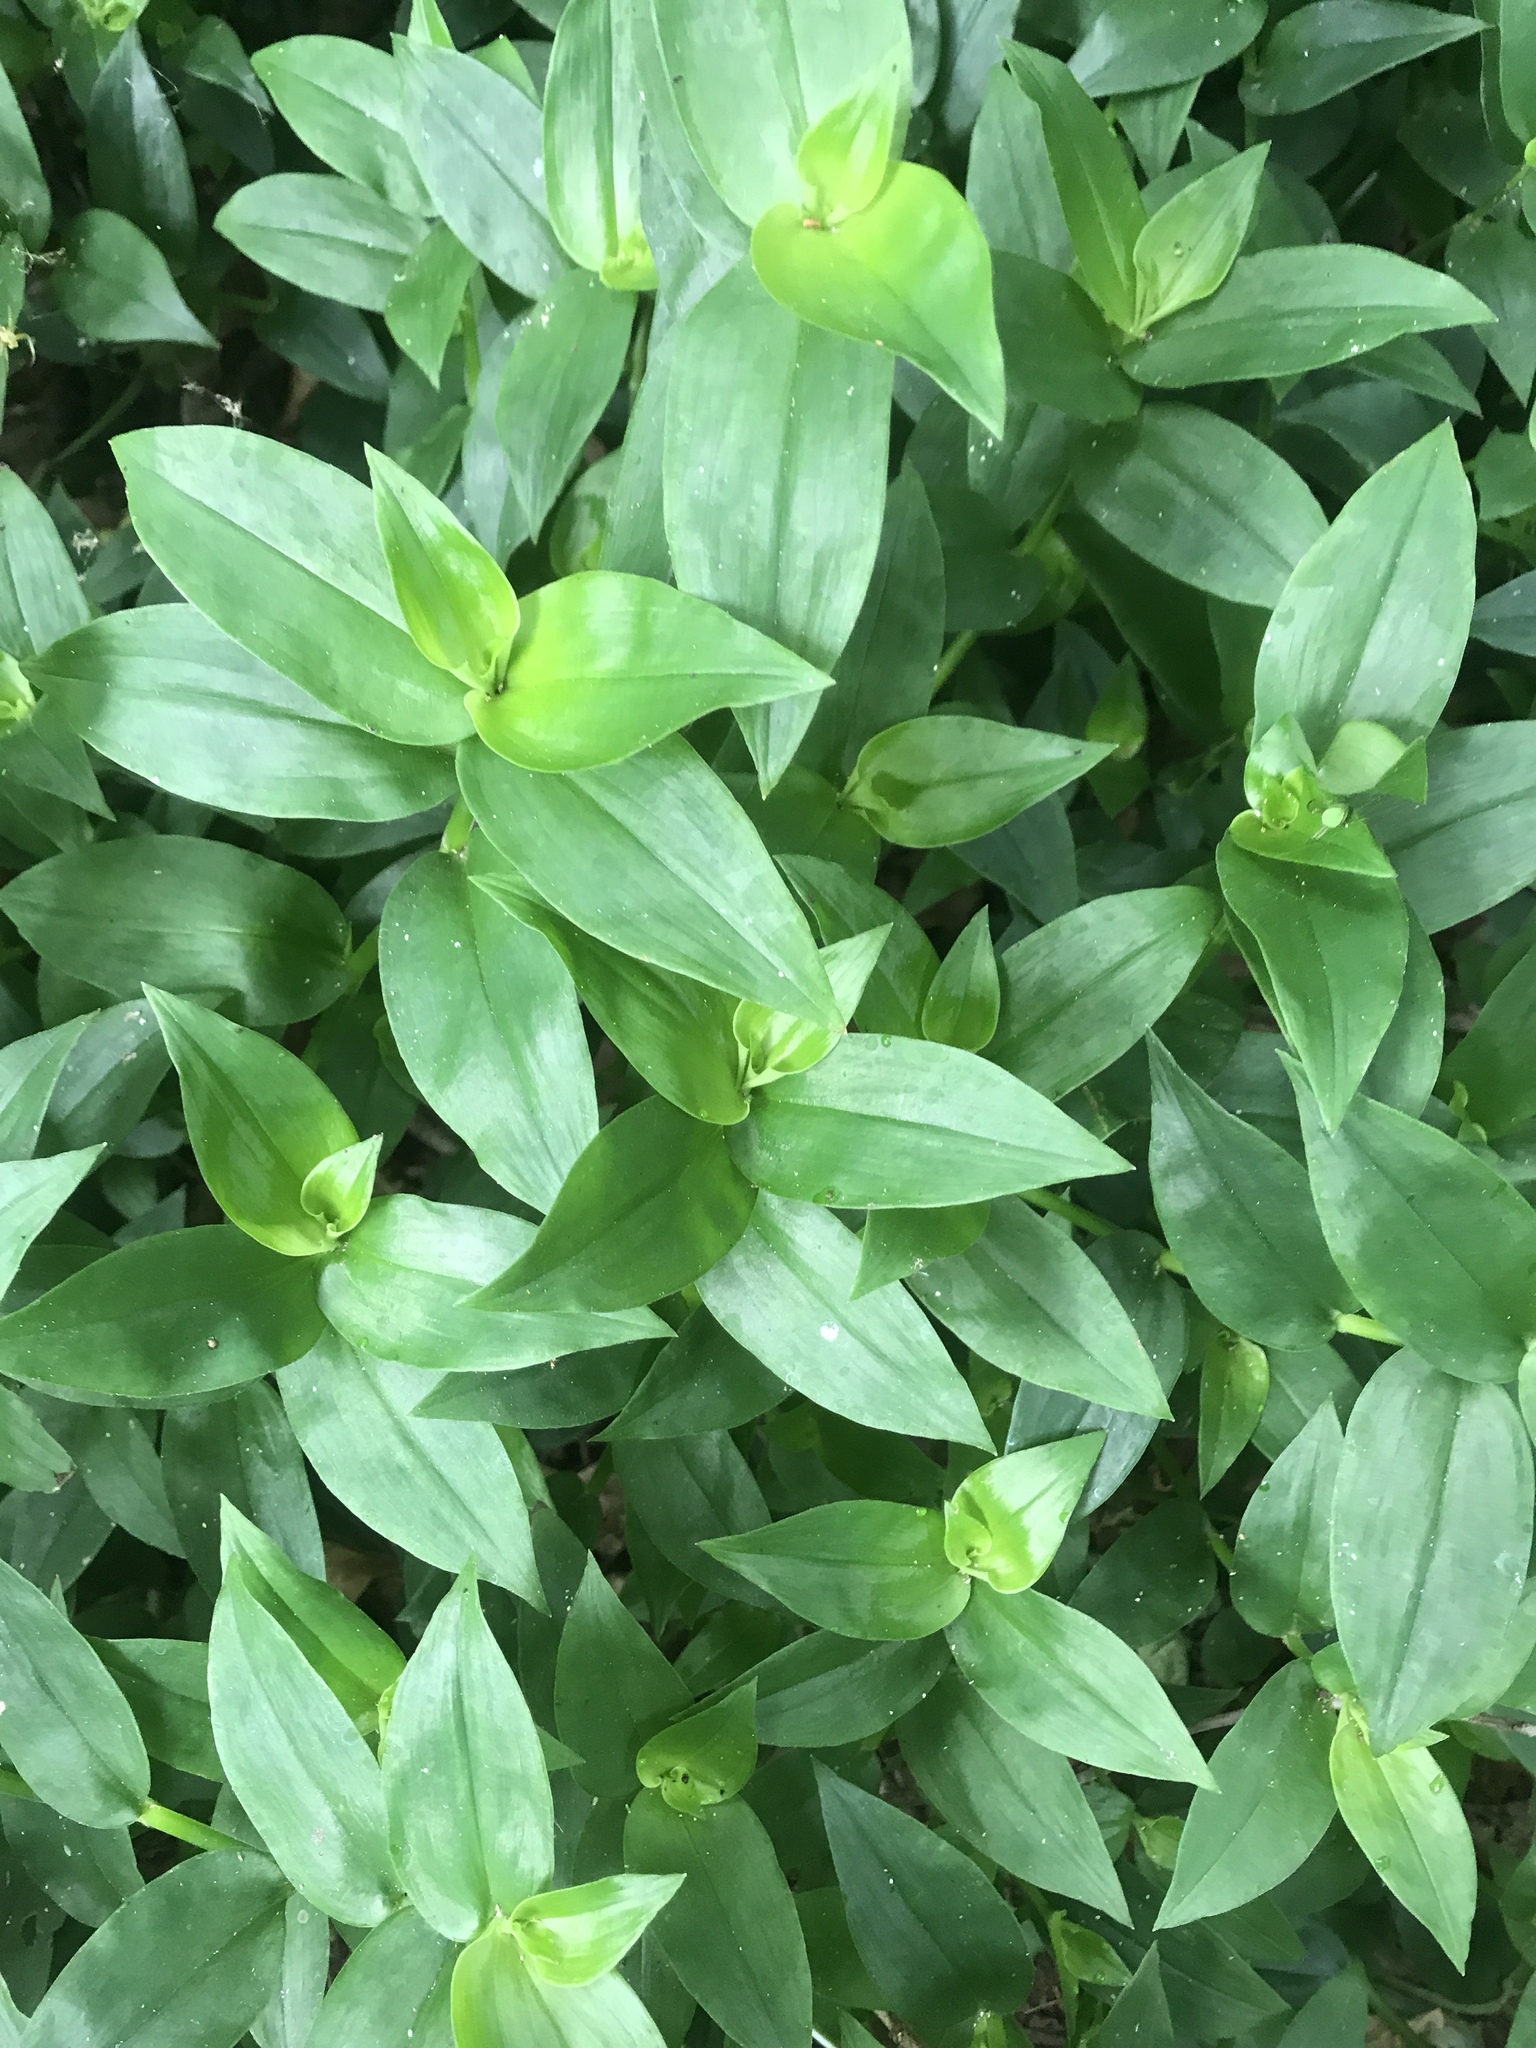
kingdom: Plantae
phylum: Tracheophyta
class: Liliopsida
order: Commelinales
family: Commelinaceae
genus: Tradescantia
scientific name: Tradescantia fluminensis
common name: Wandering-jew
